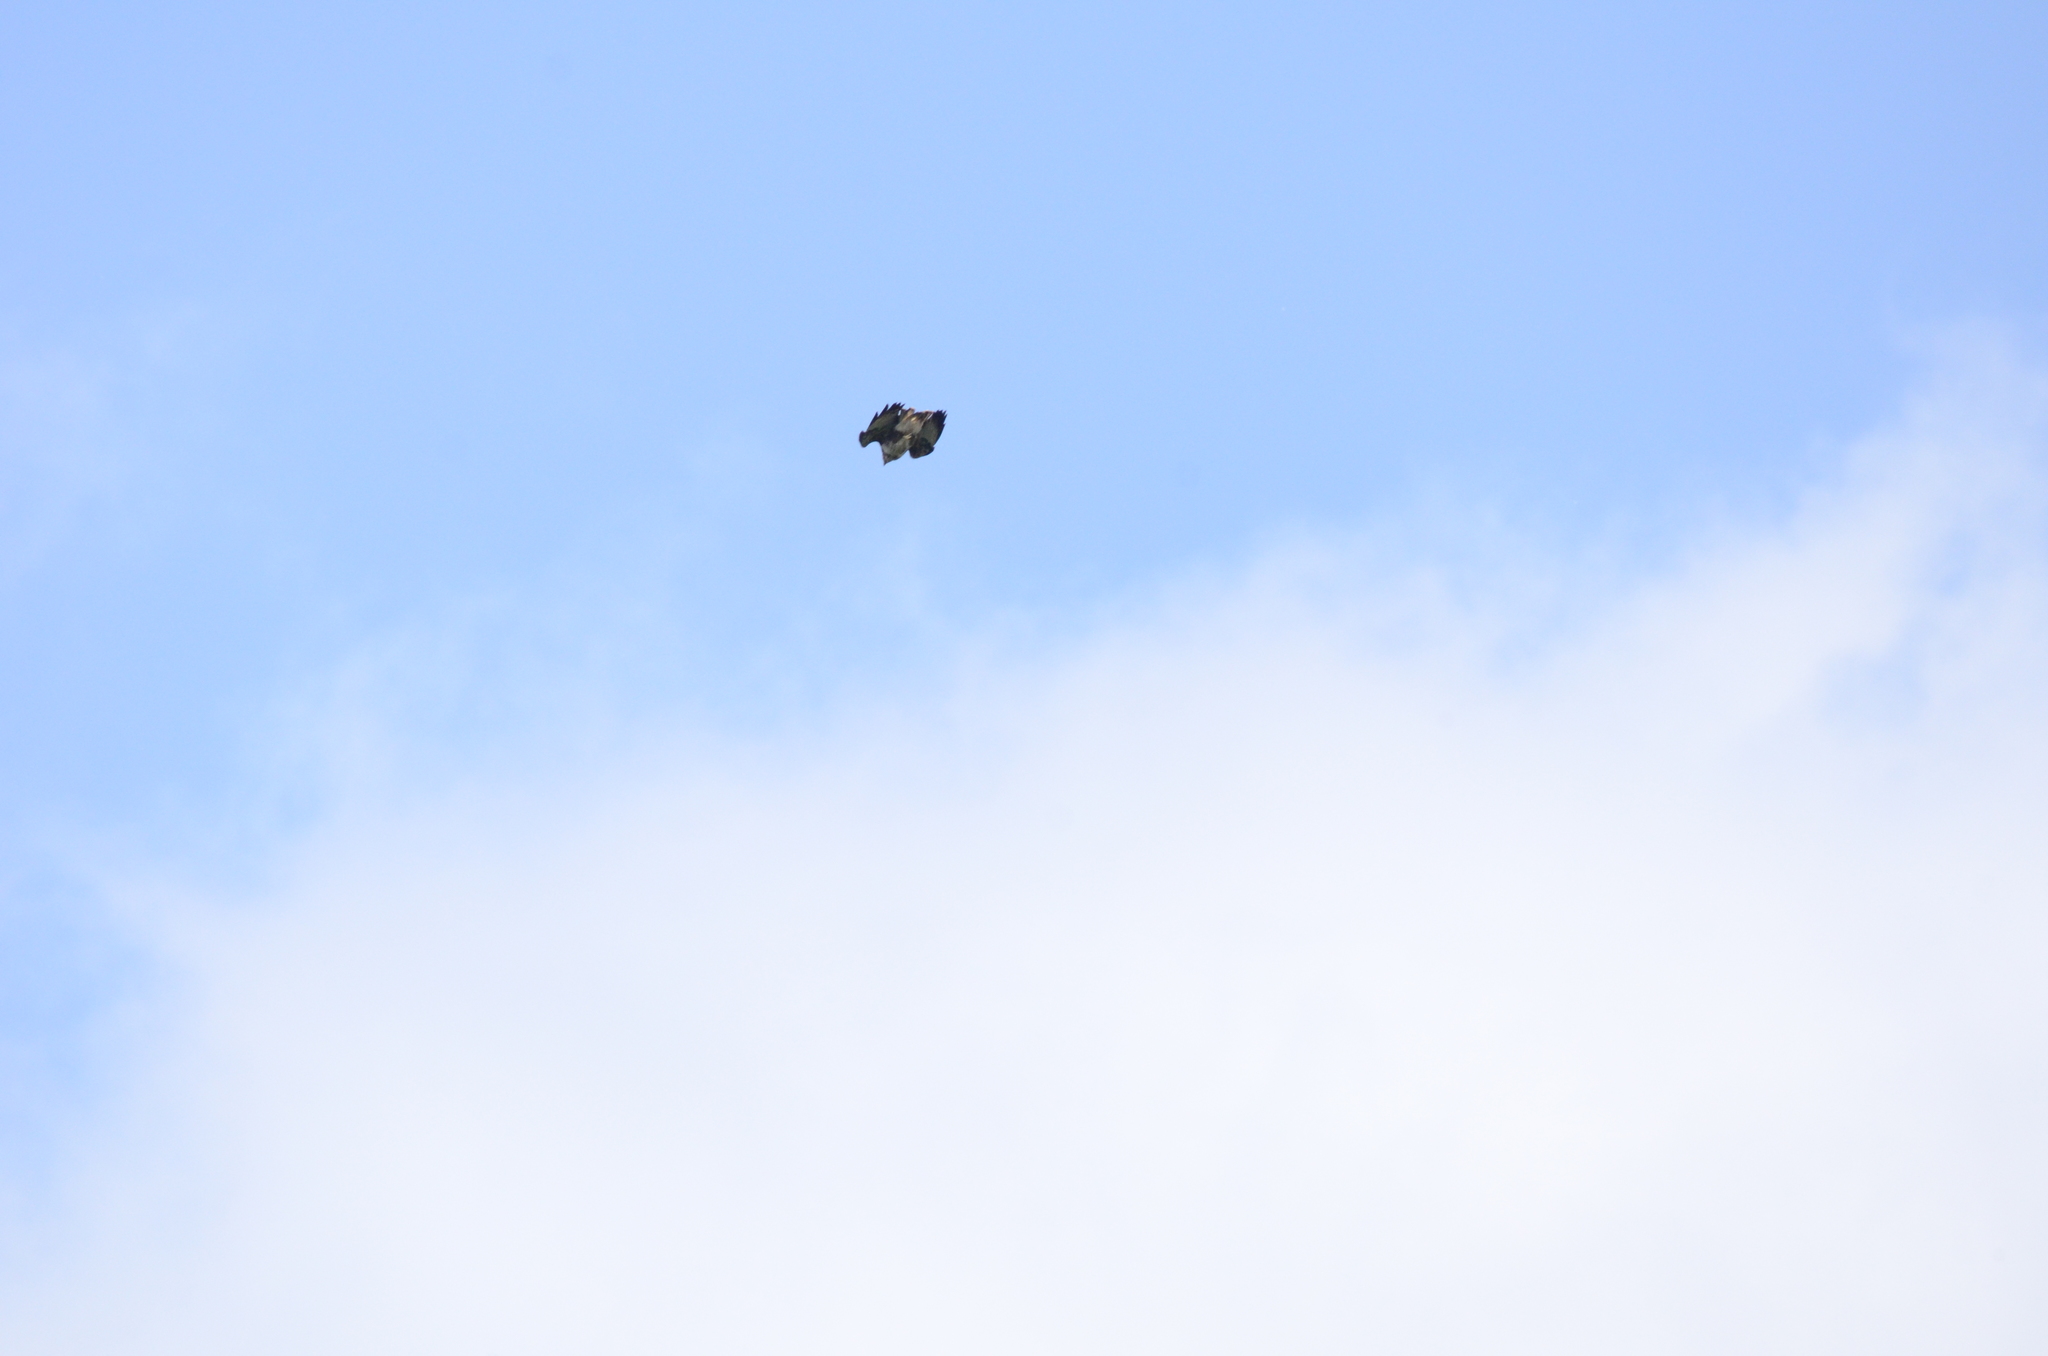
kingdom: Animalia
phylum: Chordata
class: Aves
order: Accipitriformes
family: Accipitridae
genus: Buteo
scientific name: Buteo buteo
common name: Common buzzard
